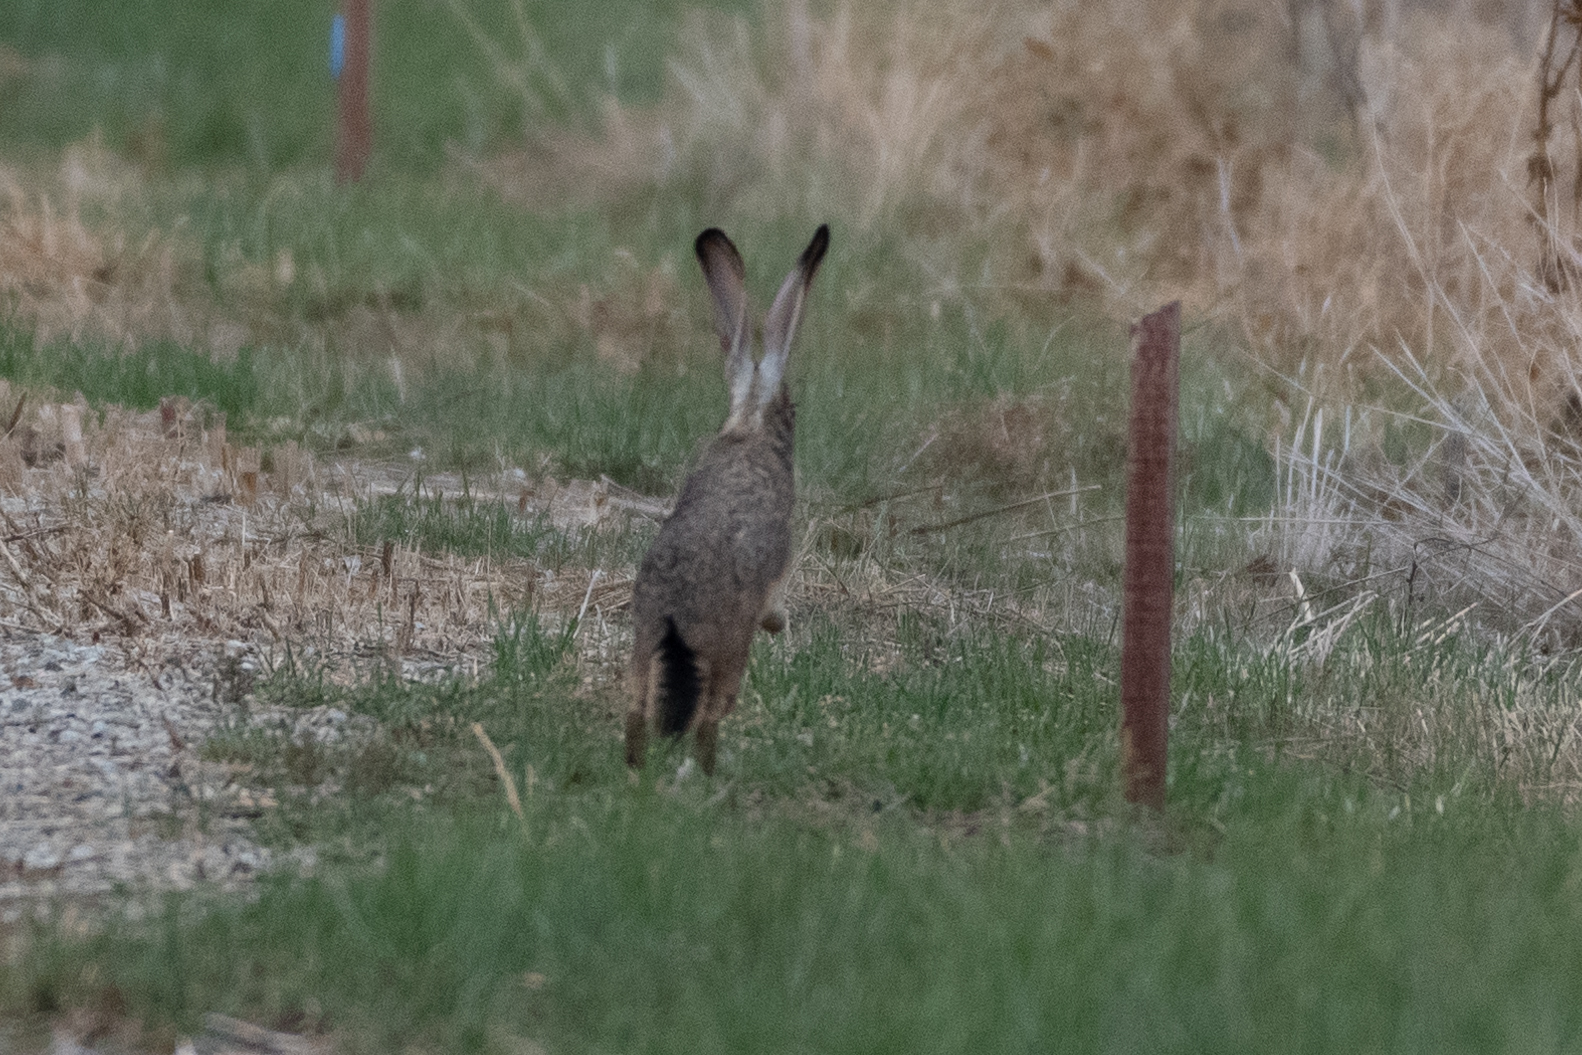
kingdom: Animalia
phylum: Chordata
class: Mammalia
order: Lagomorpha
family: Leporidae
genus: Lepus
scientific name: Lepus californicus
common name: Black-tailed jackrabbit
